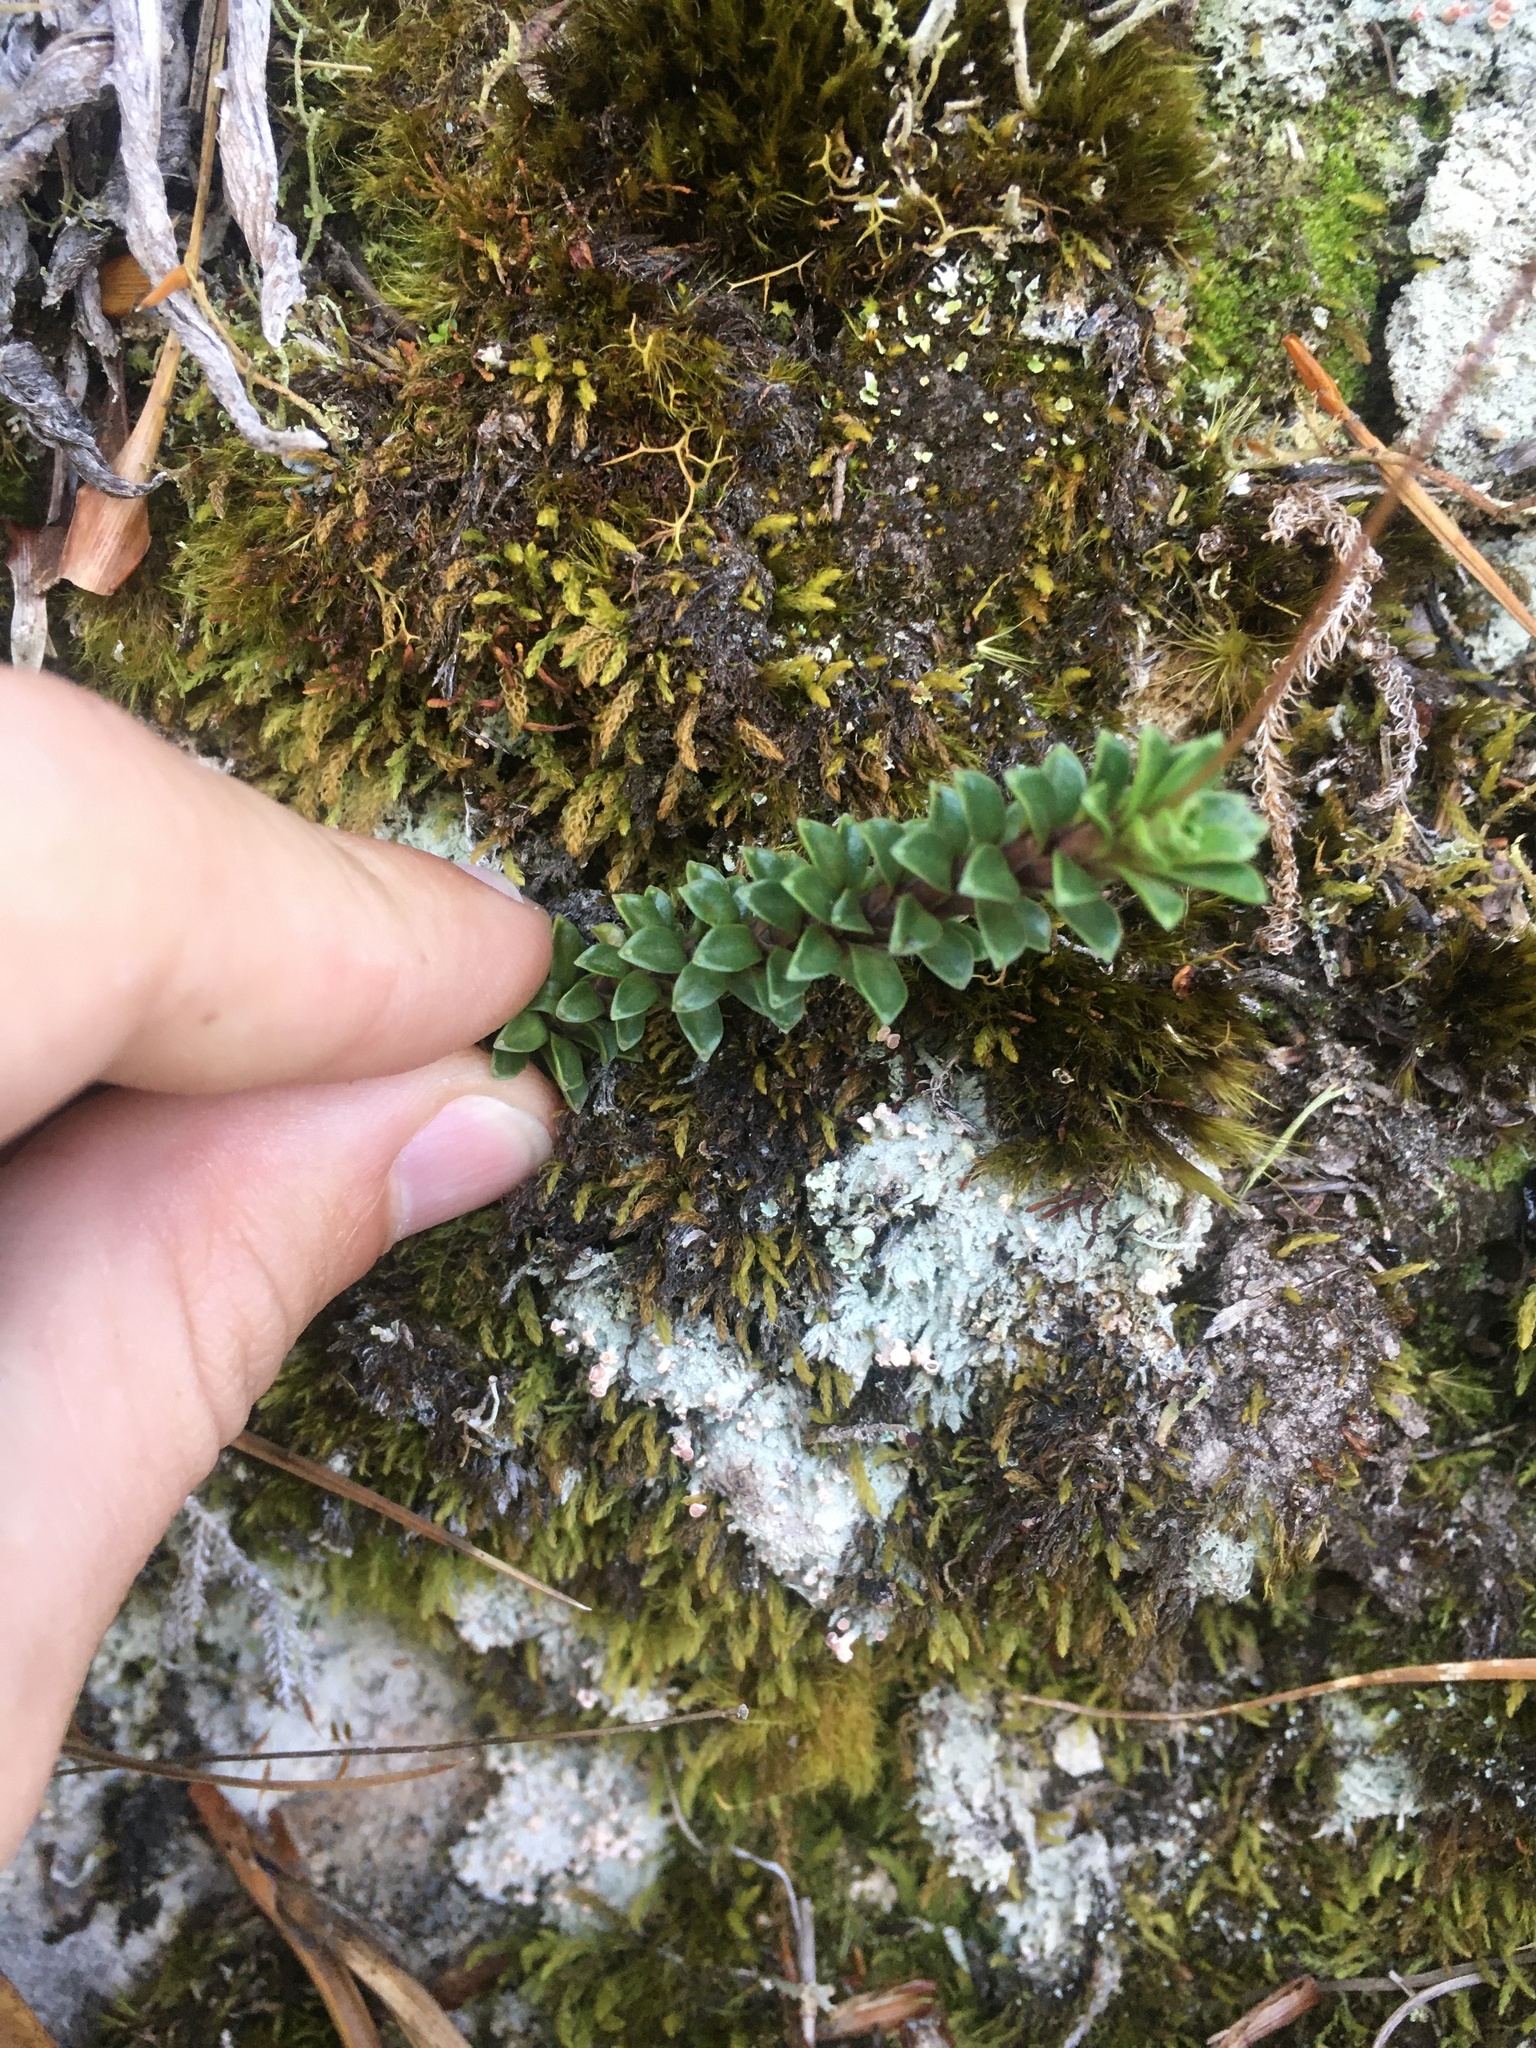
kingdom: Plantae
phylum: Tracheophyta
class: Magnoliopsida
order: Asterales
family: Stylidiaceae
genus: Forstera
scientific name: Forstera purpurata
